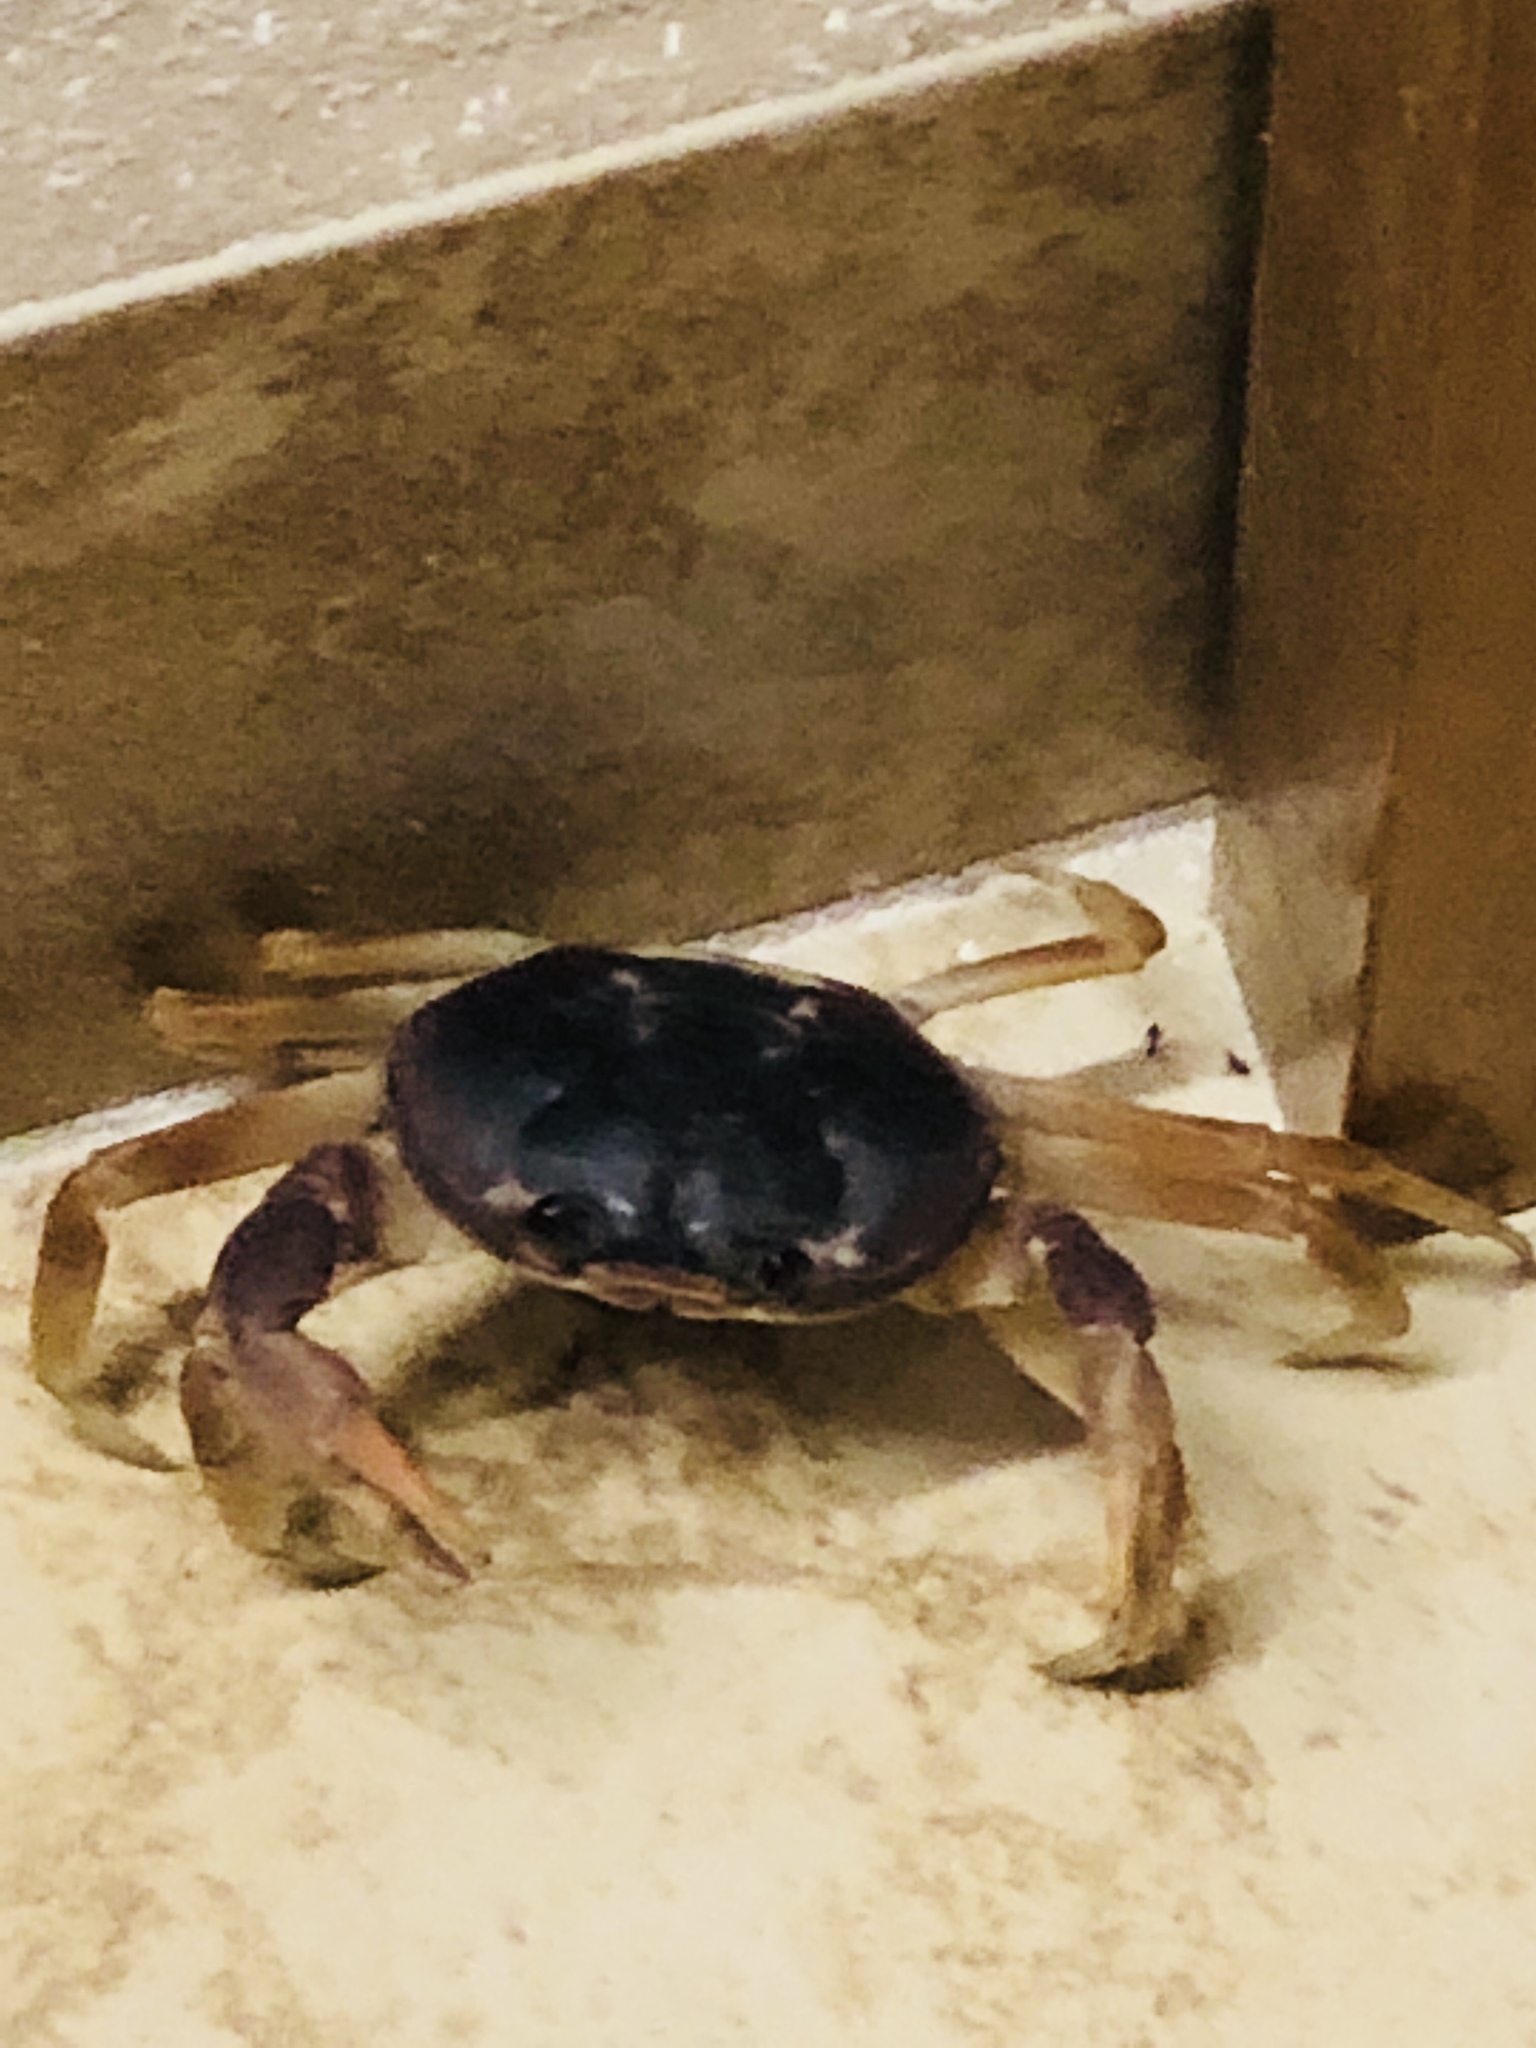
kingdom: Animalia
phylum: Arthropoda
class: Malacostraca
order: Decapoda
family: Gecarcinidae
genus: Gecarcinus
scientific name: Gecarcinus lateralis
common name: Bermuda land crab
